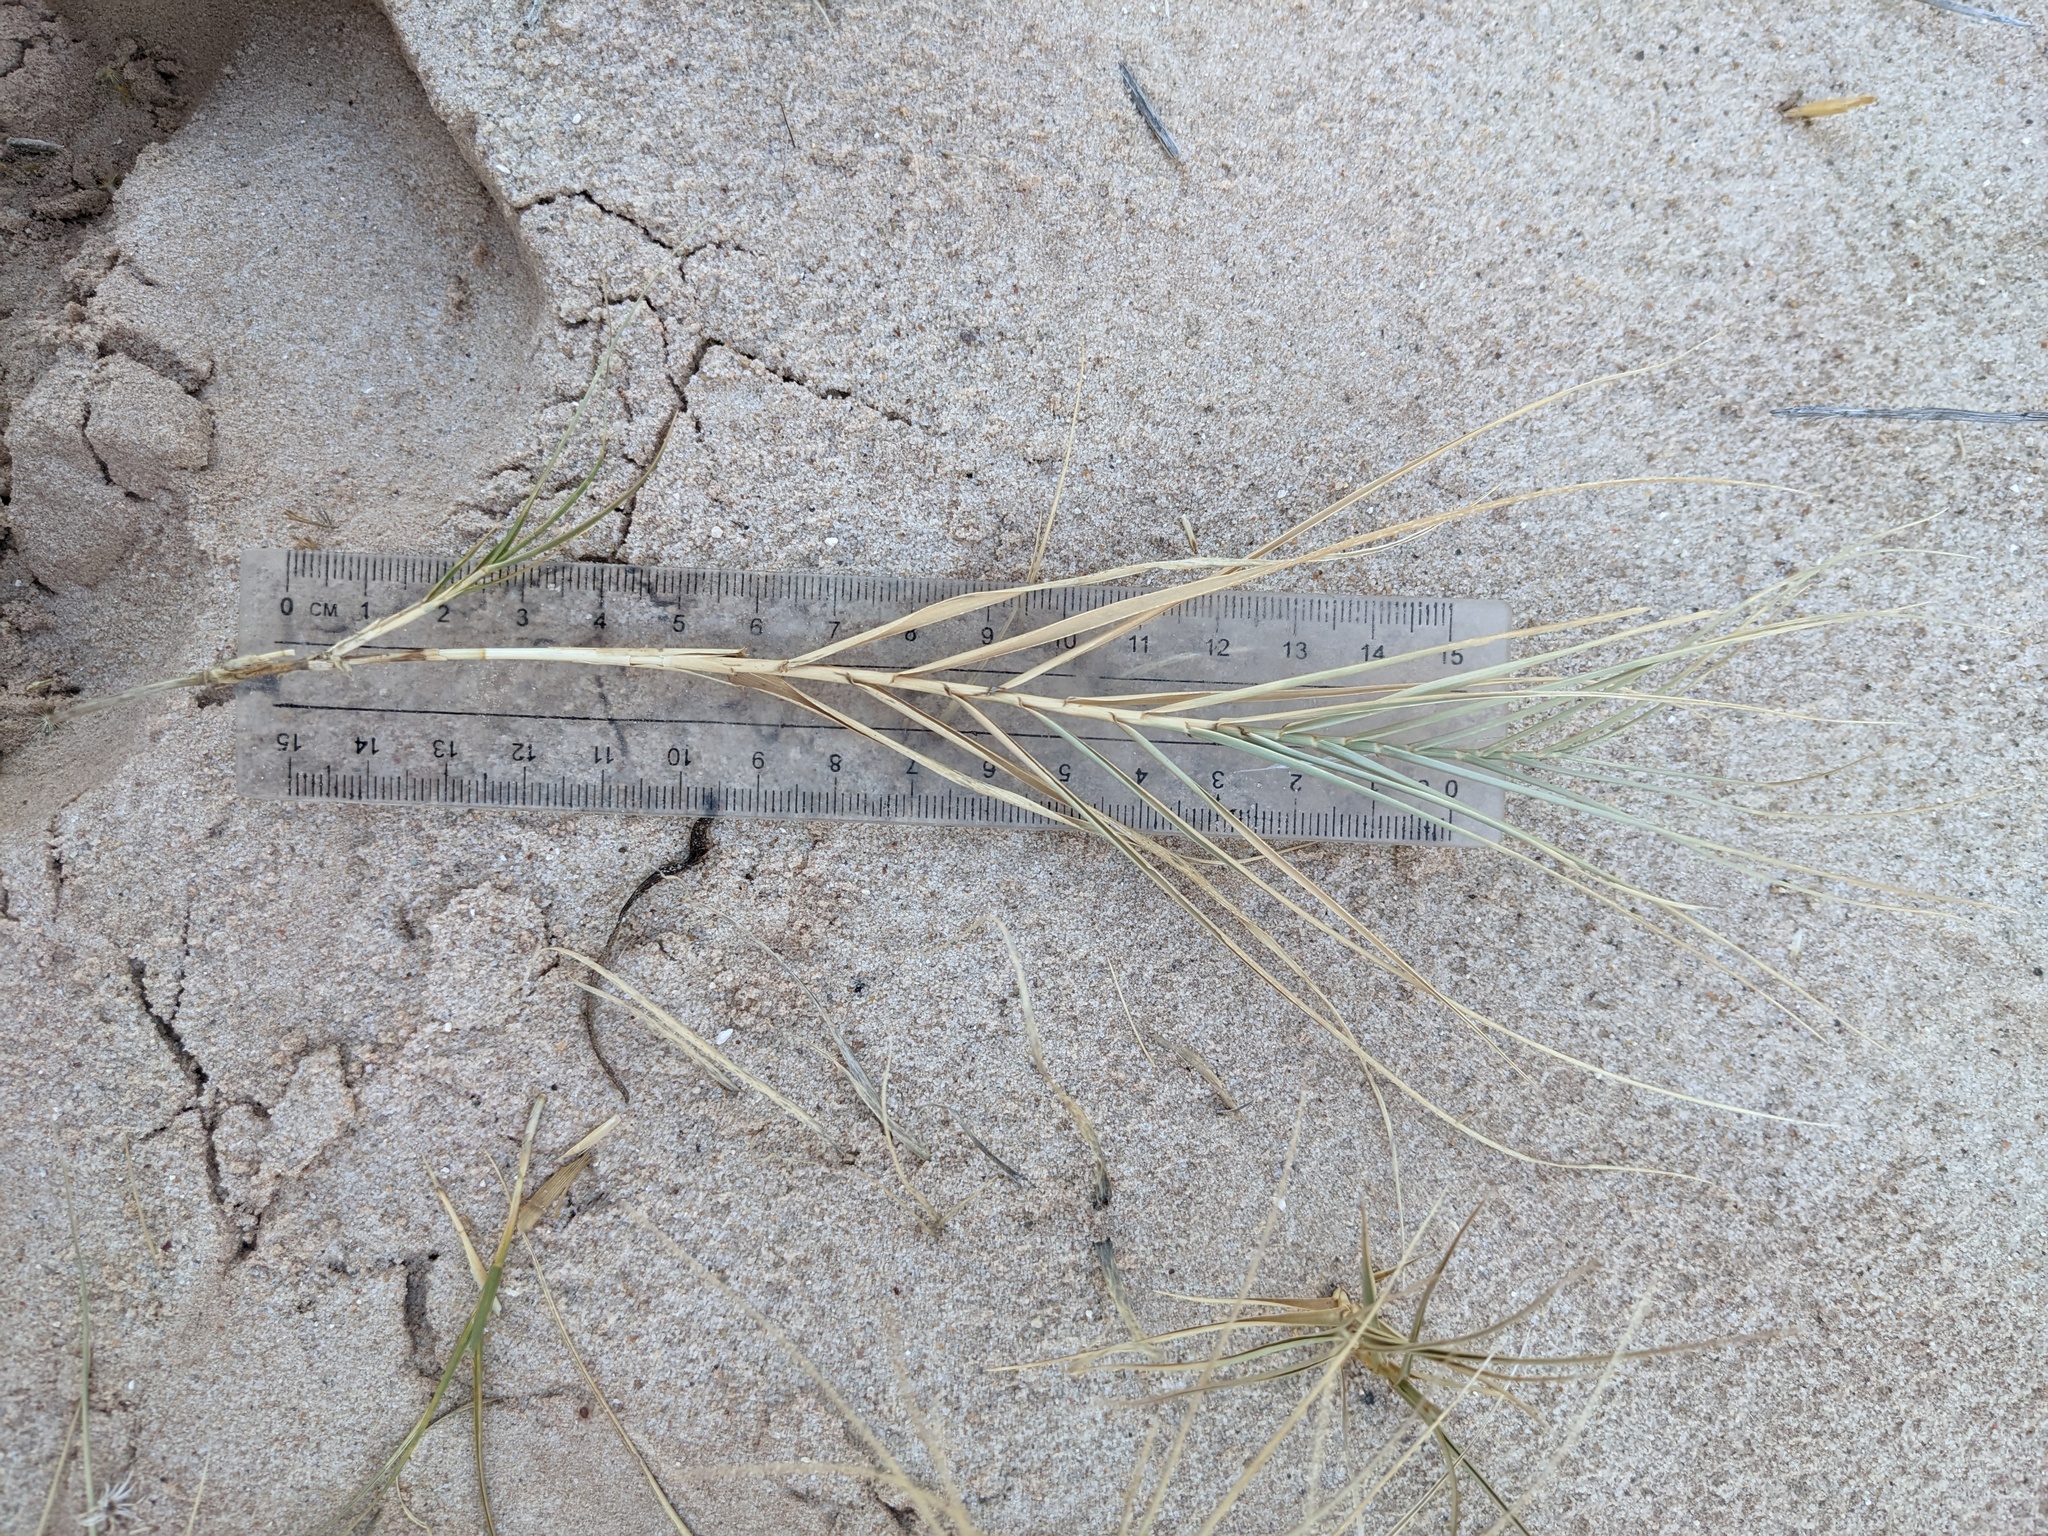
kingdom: Plantae
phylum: Tracheophyta
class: Liliopsida
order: Poales
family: Poaceae
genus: Distichlis
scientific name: Distichlis spicata
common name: Saltgrass
